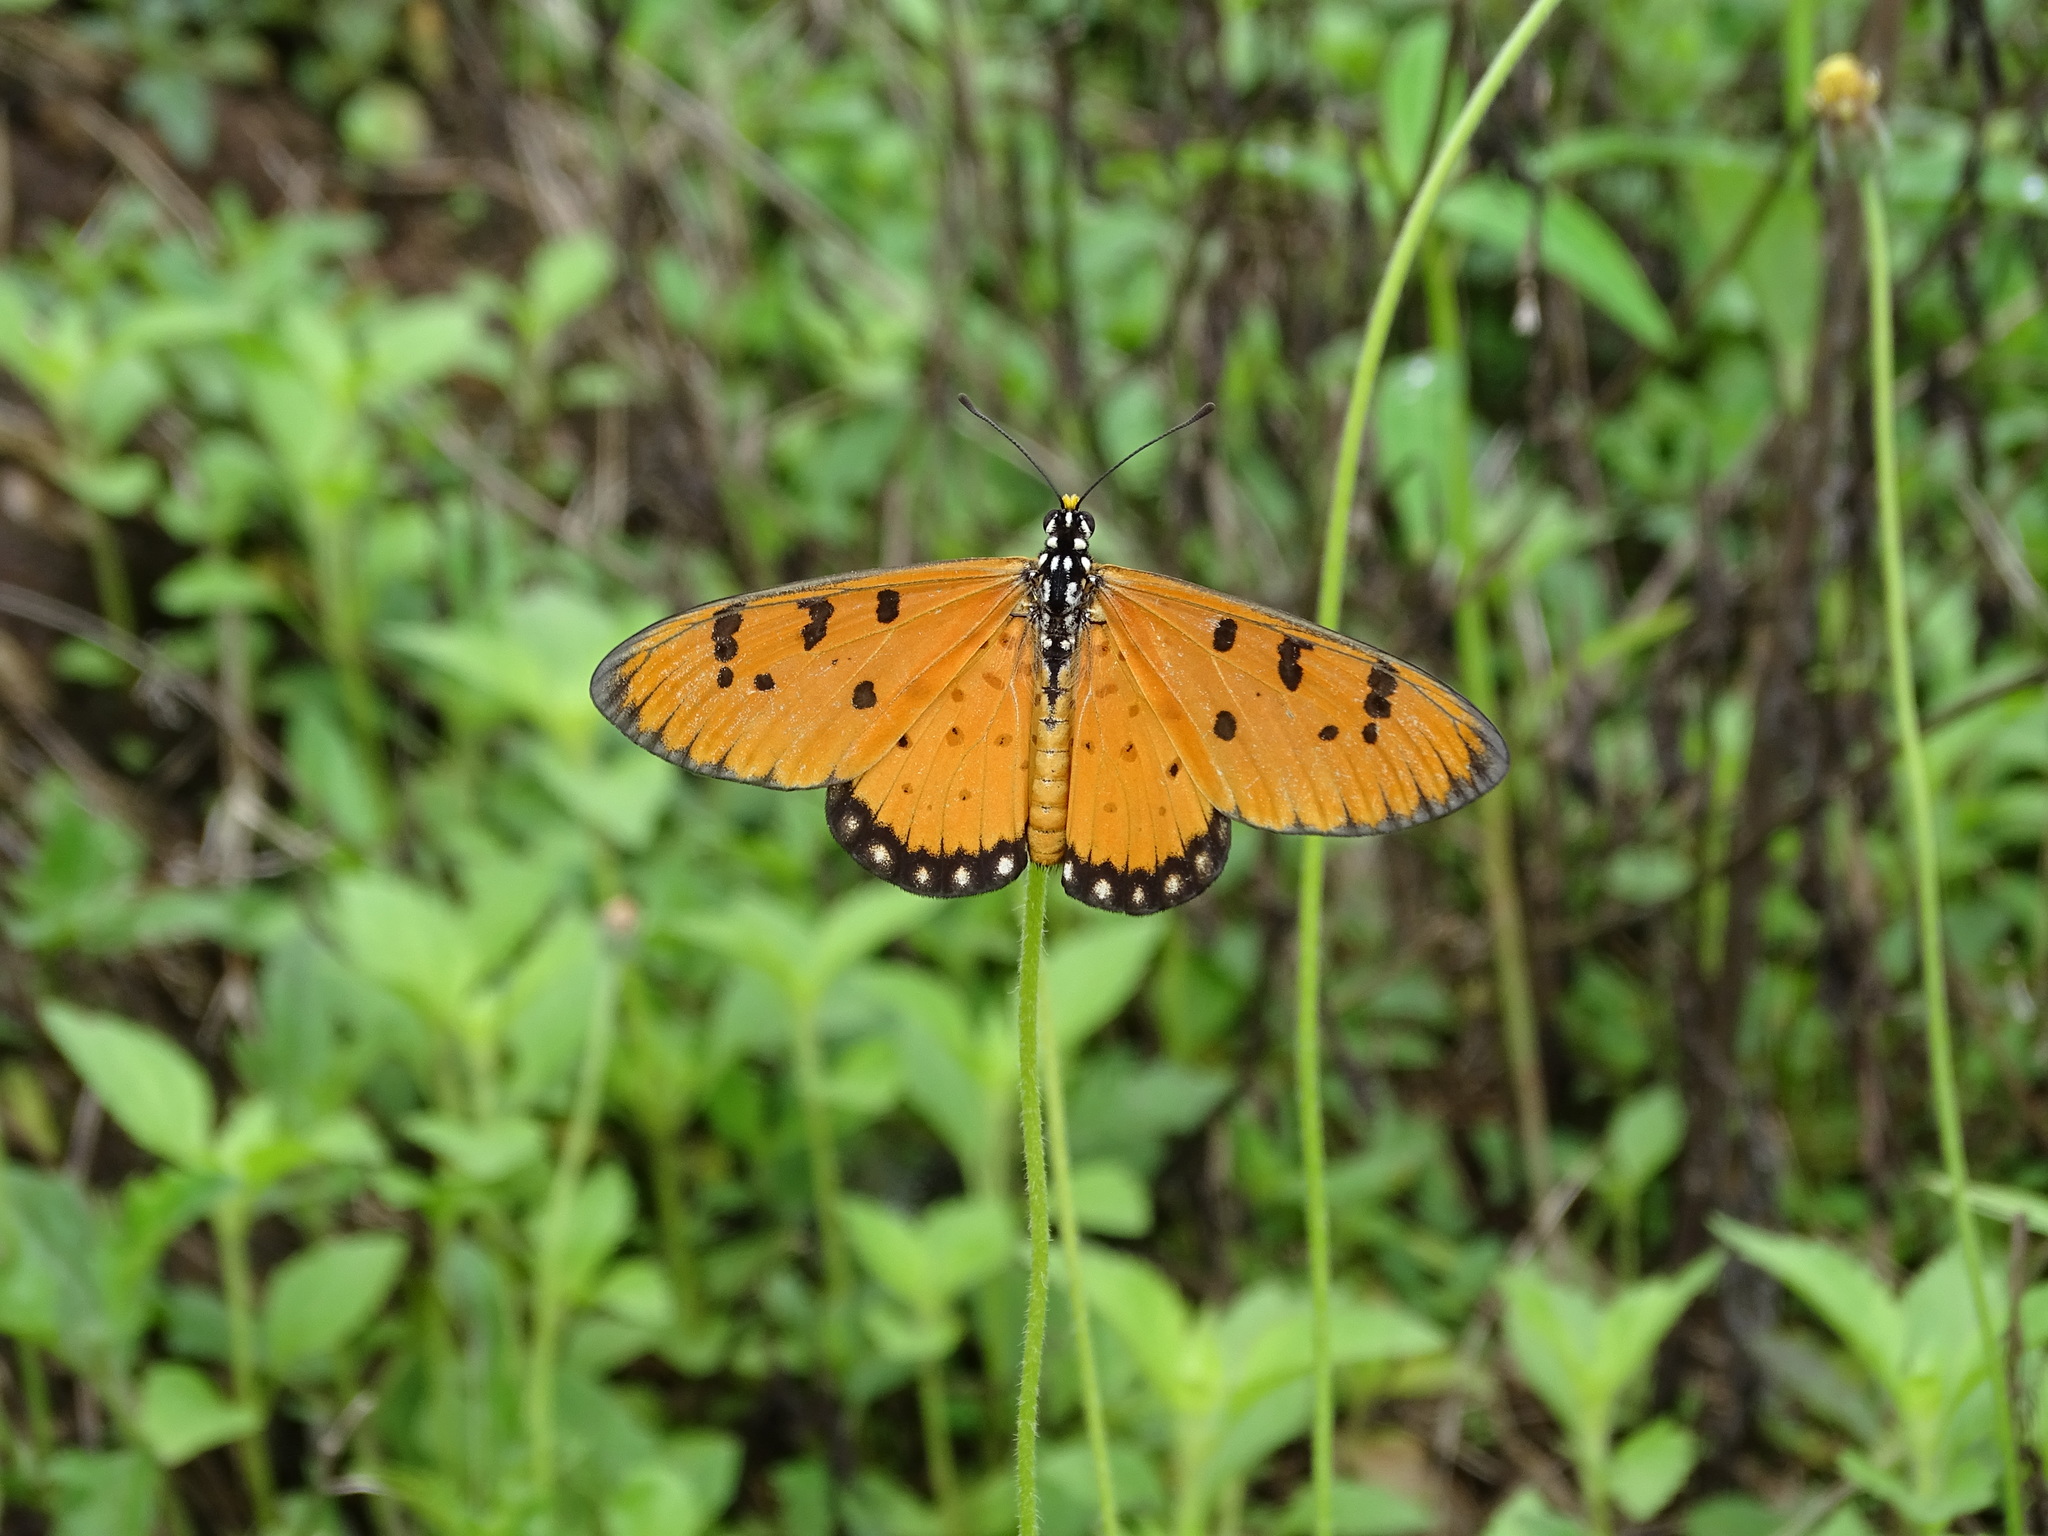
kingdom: Animalia
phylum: Arthropoda
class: Insecta
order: Lepidoptera
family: Nymphalidae
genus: Acraea
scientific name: Acraea terpsicore
